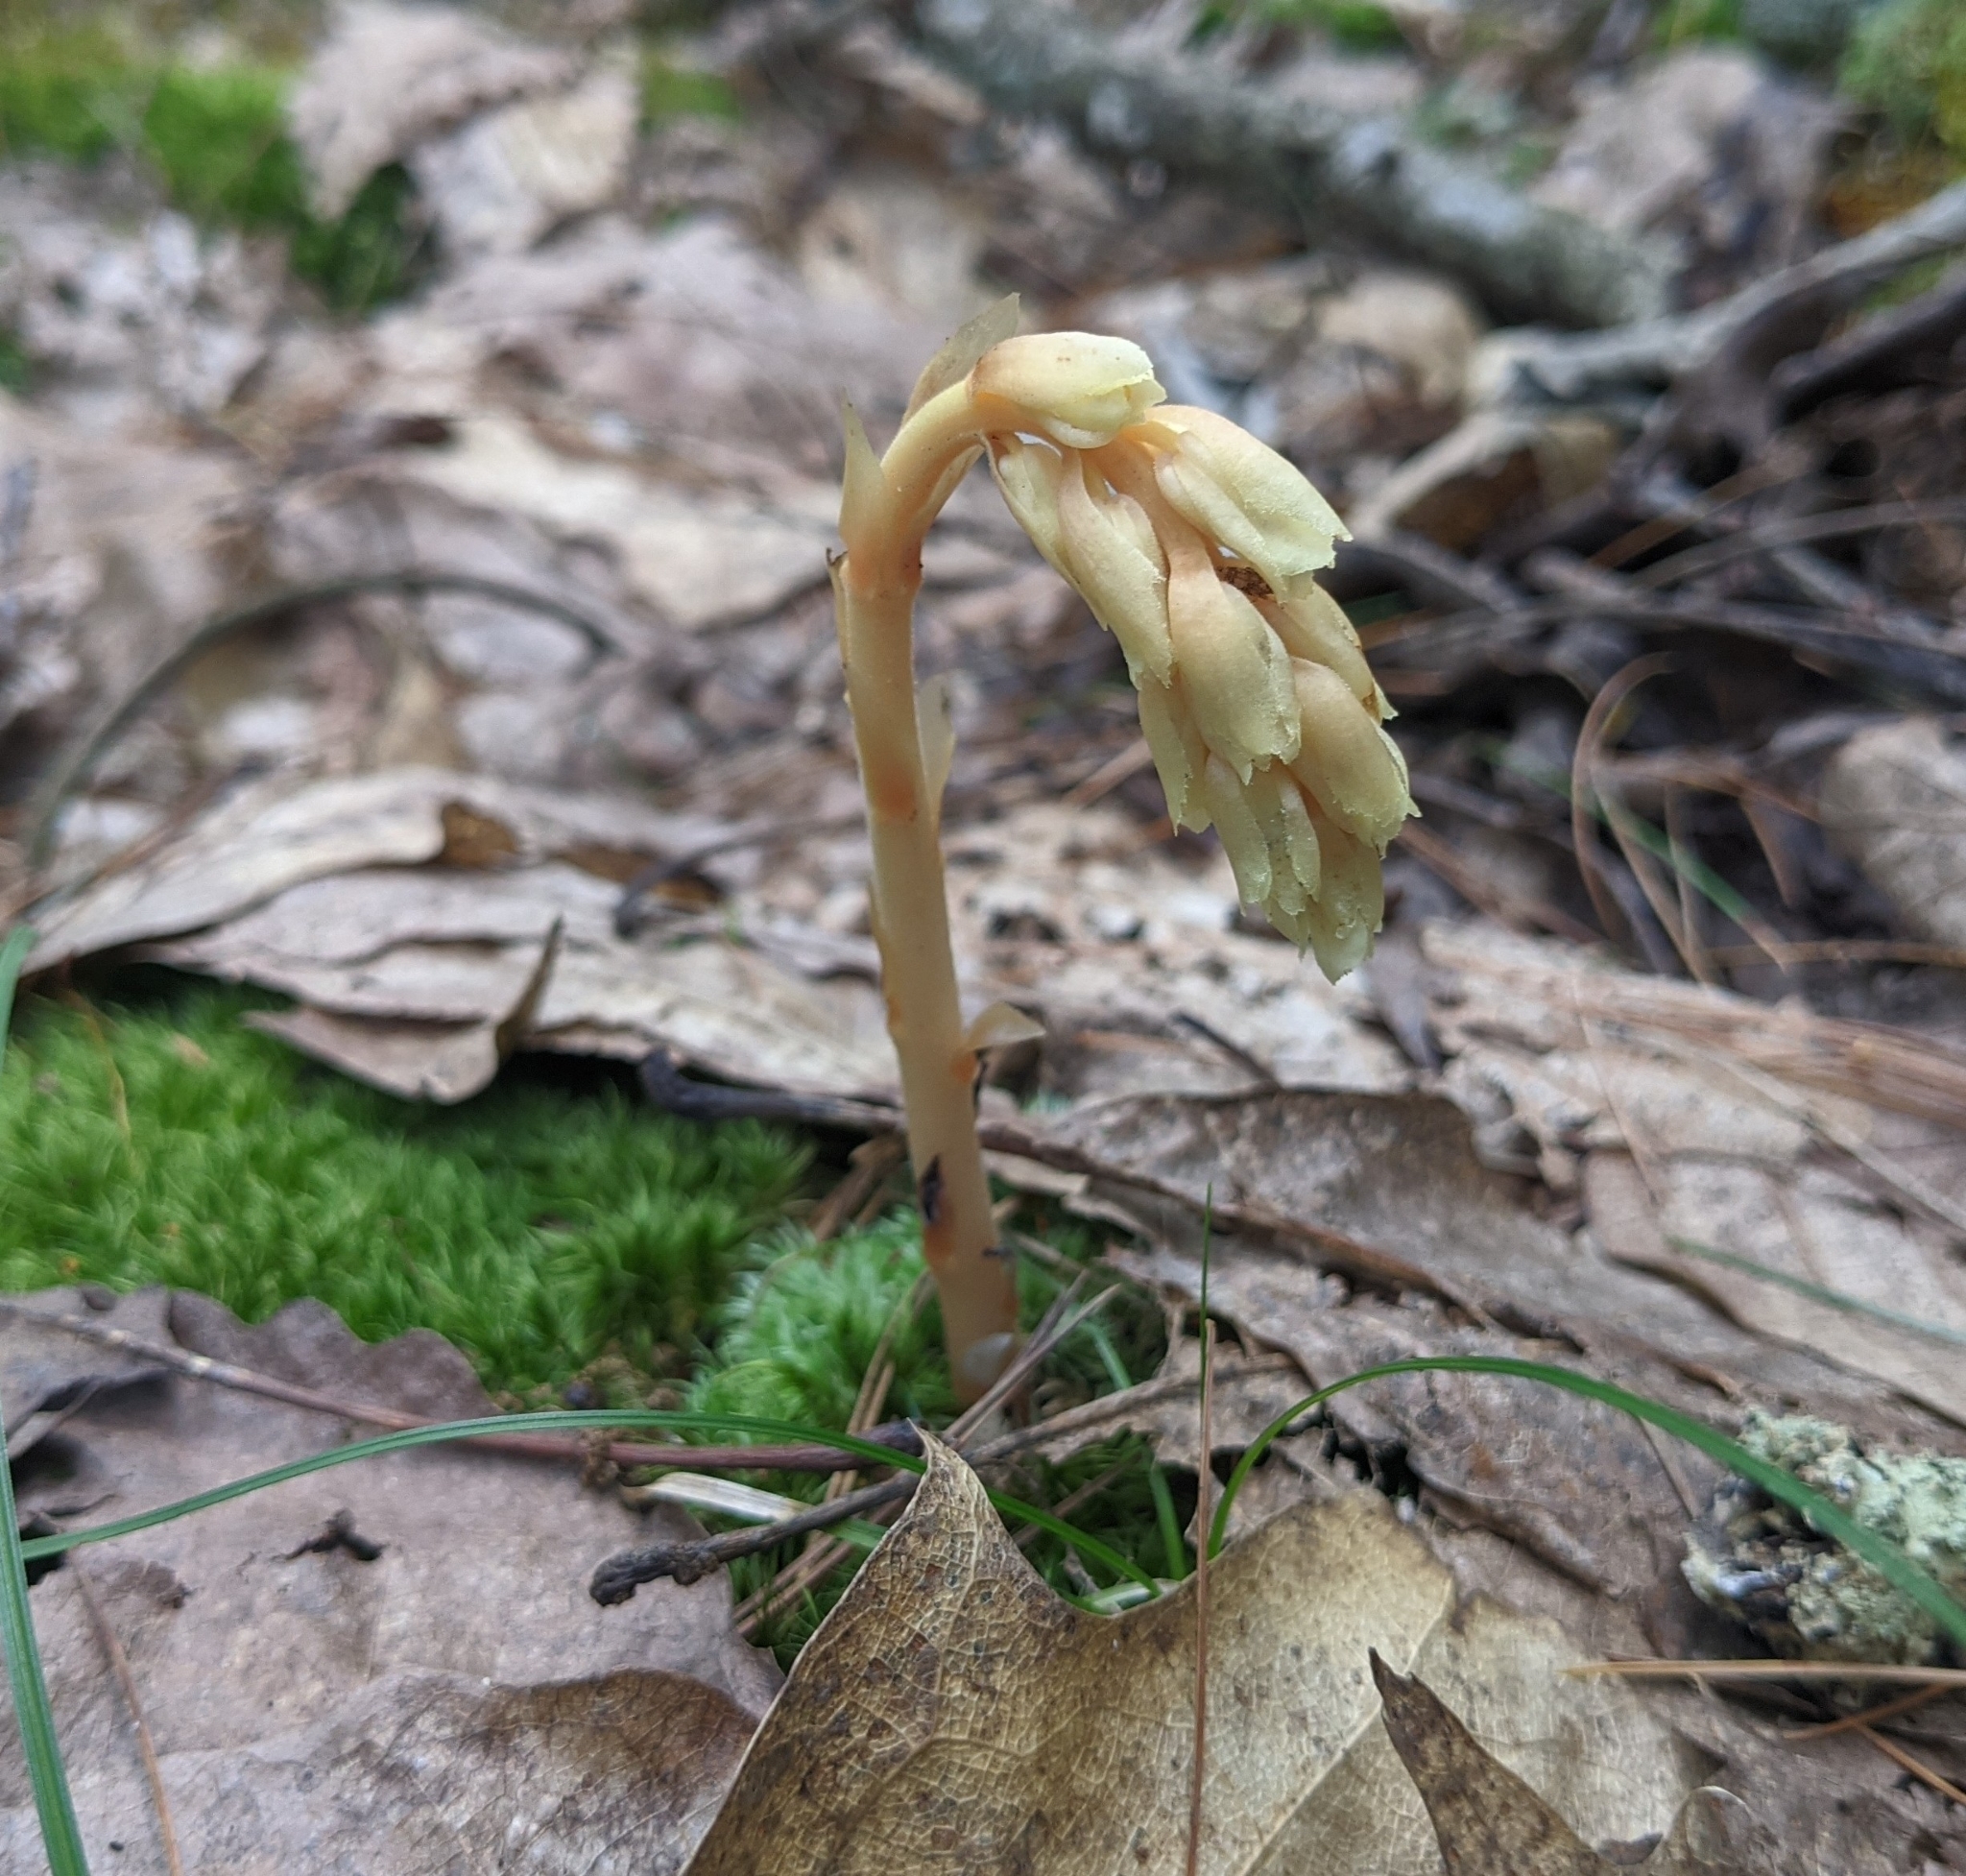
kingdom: Plantae
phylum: Tracheophyta
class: Magnoliopsida
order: Ericales
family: Ericaceae
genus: Hypopitys
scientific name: Hypopitys monotropa
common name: Yellow bird's-nest
